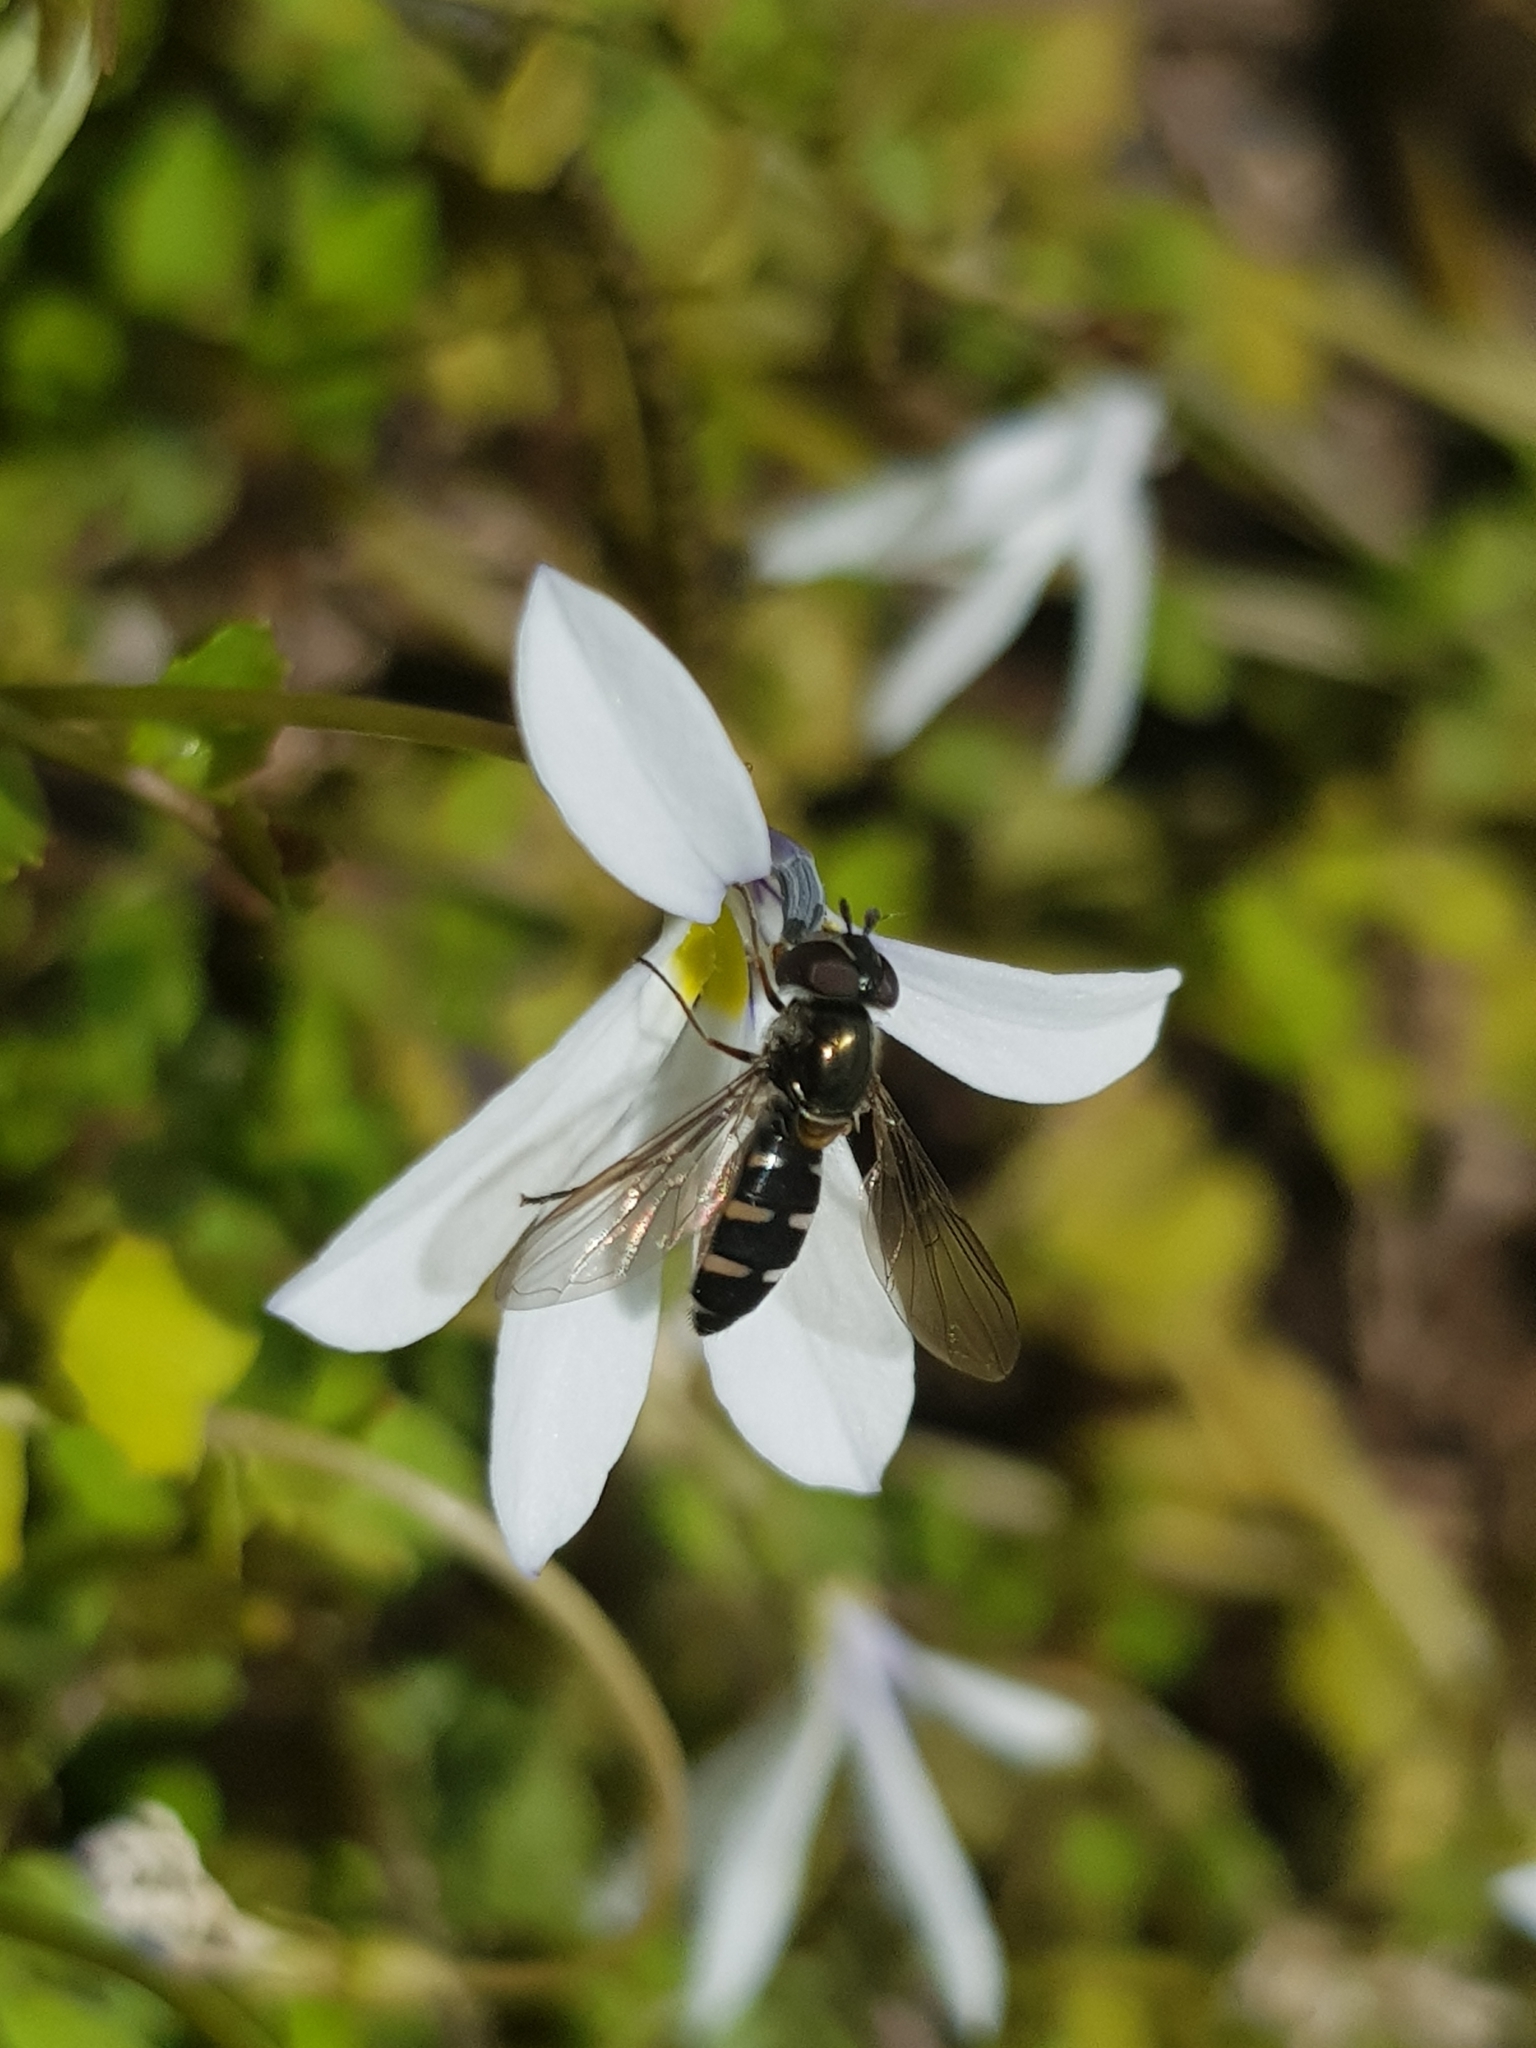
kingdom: Animalia
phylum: Arthropoda
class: Insecta
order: Diptera
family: Syrphidae
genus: Melangyna
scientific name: Melangyna novaezelandiae
